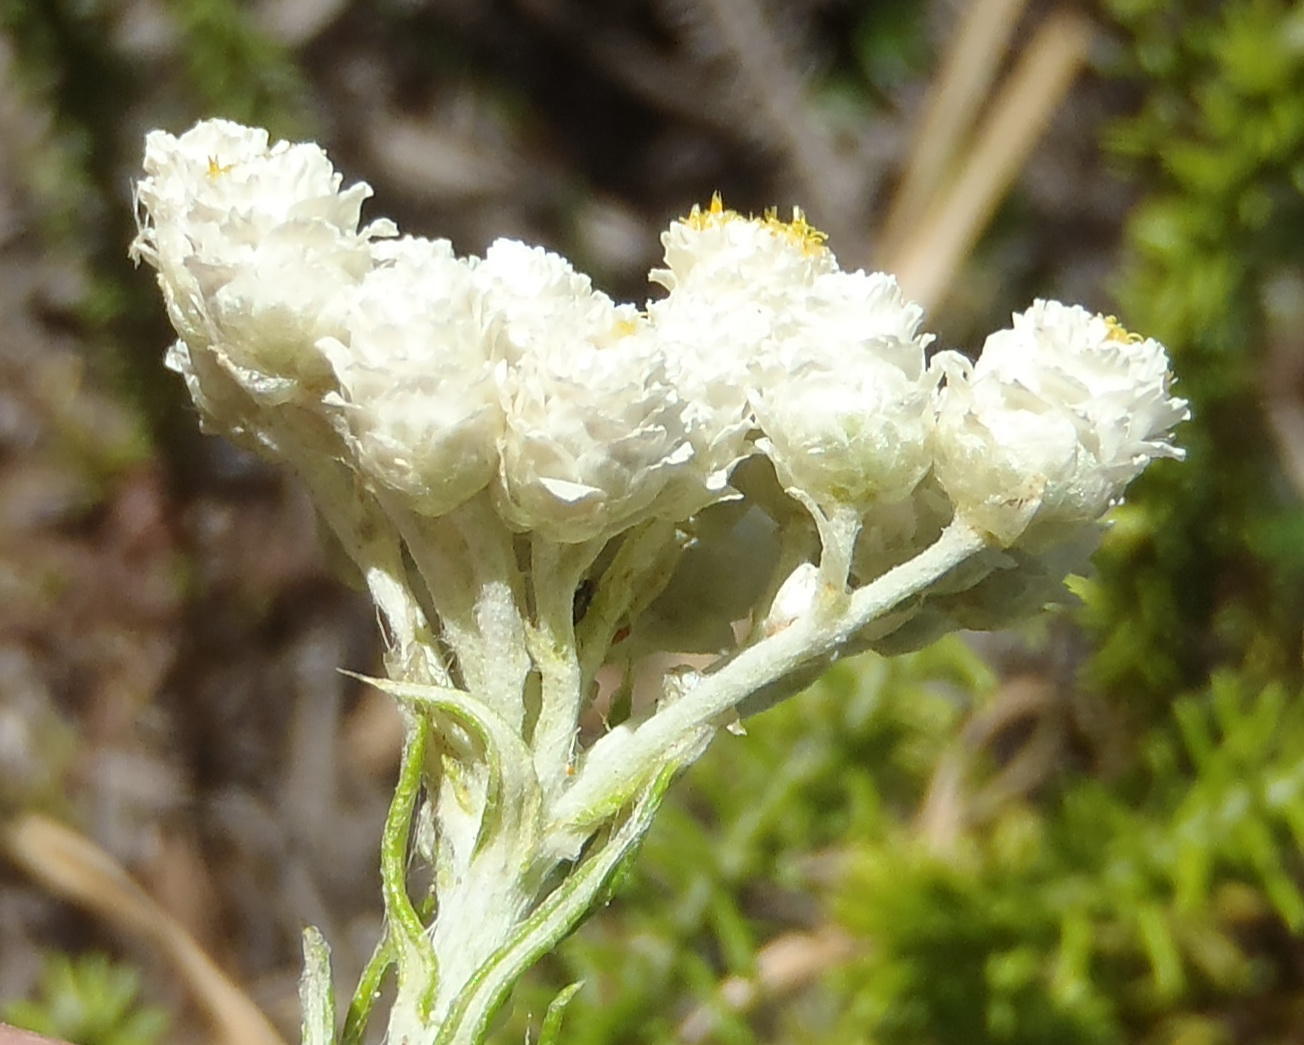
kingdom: Plantae
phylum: Tracheophyta
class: Magnoliopsida
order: Asterales
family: Asteraceae
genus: Helichrysum
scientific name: Helichrysum teretifolium
